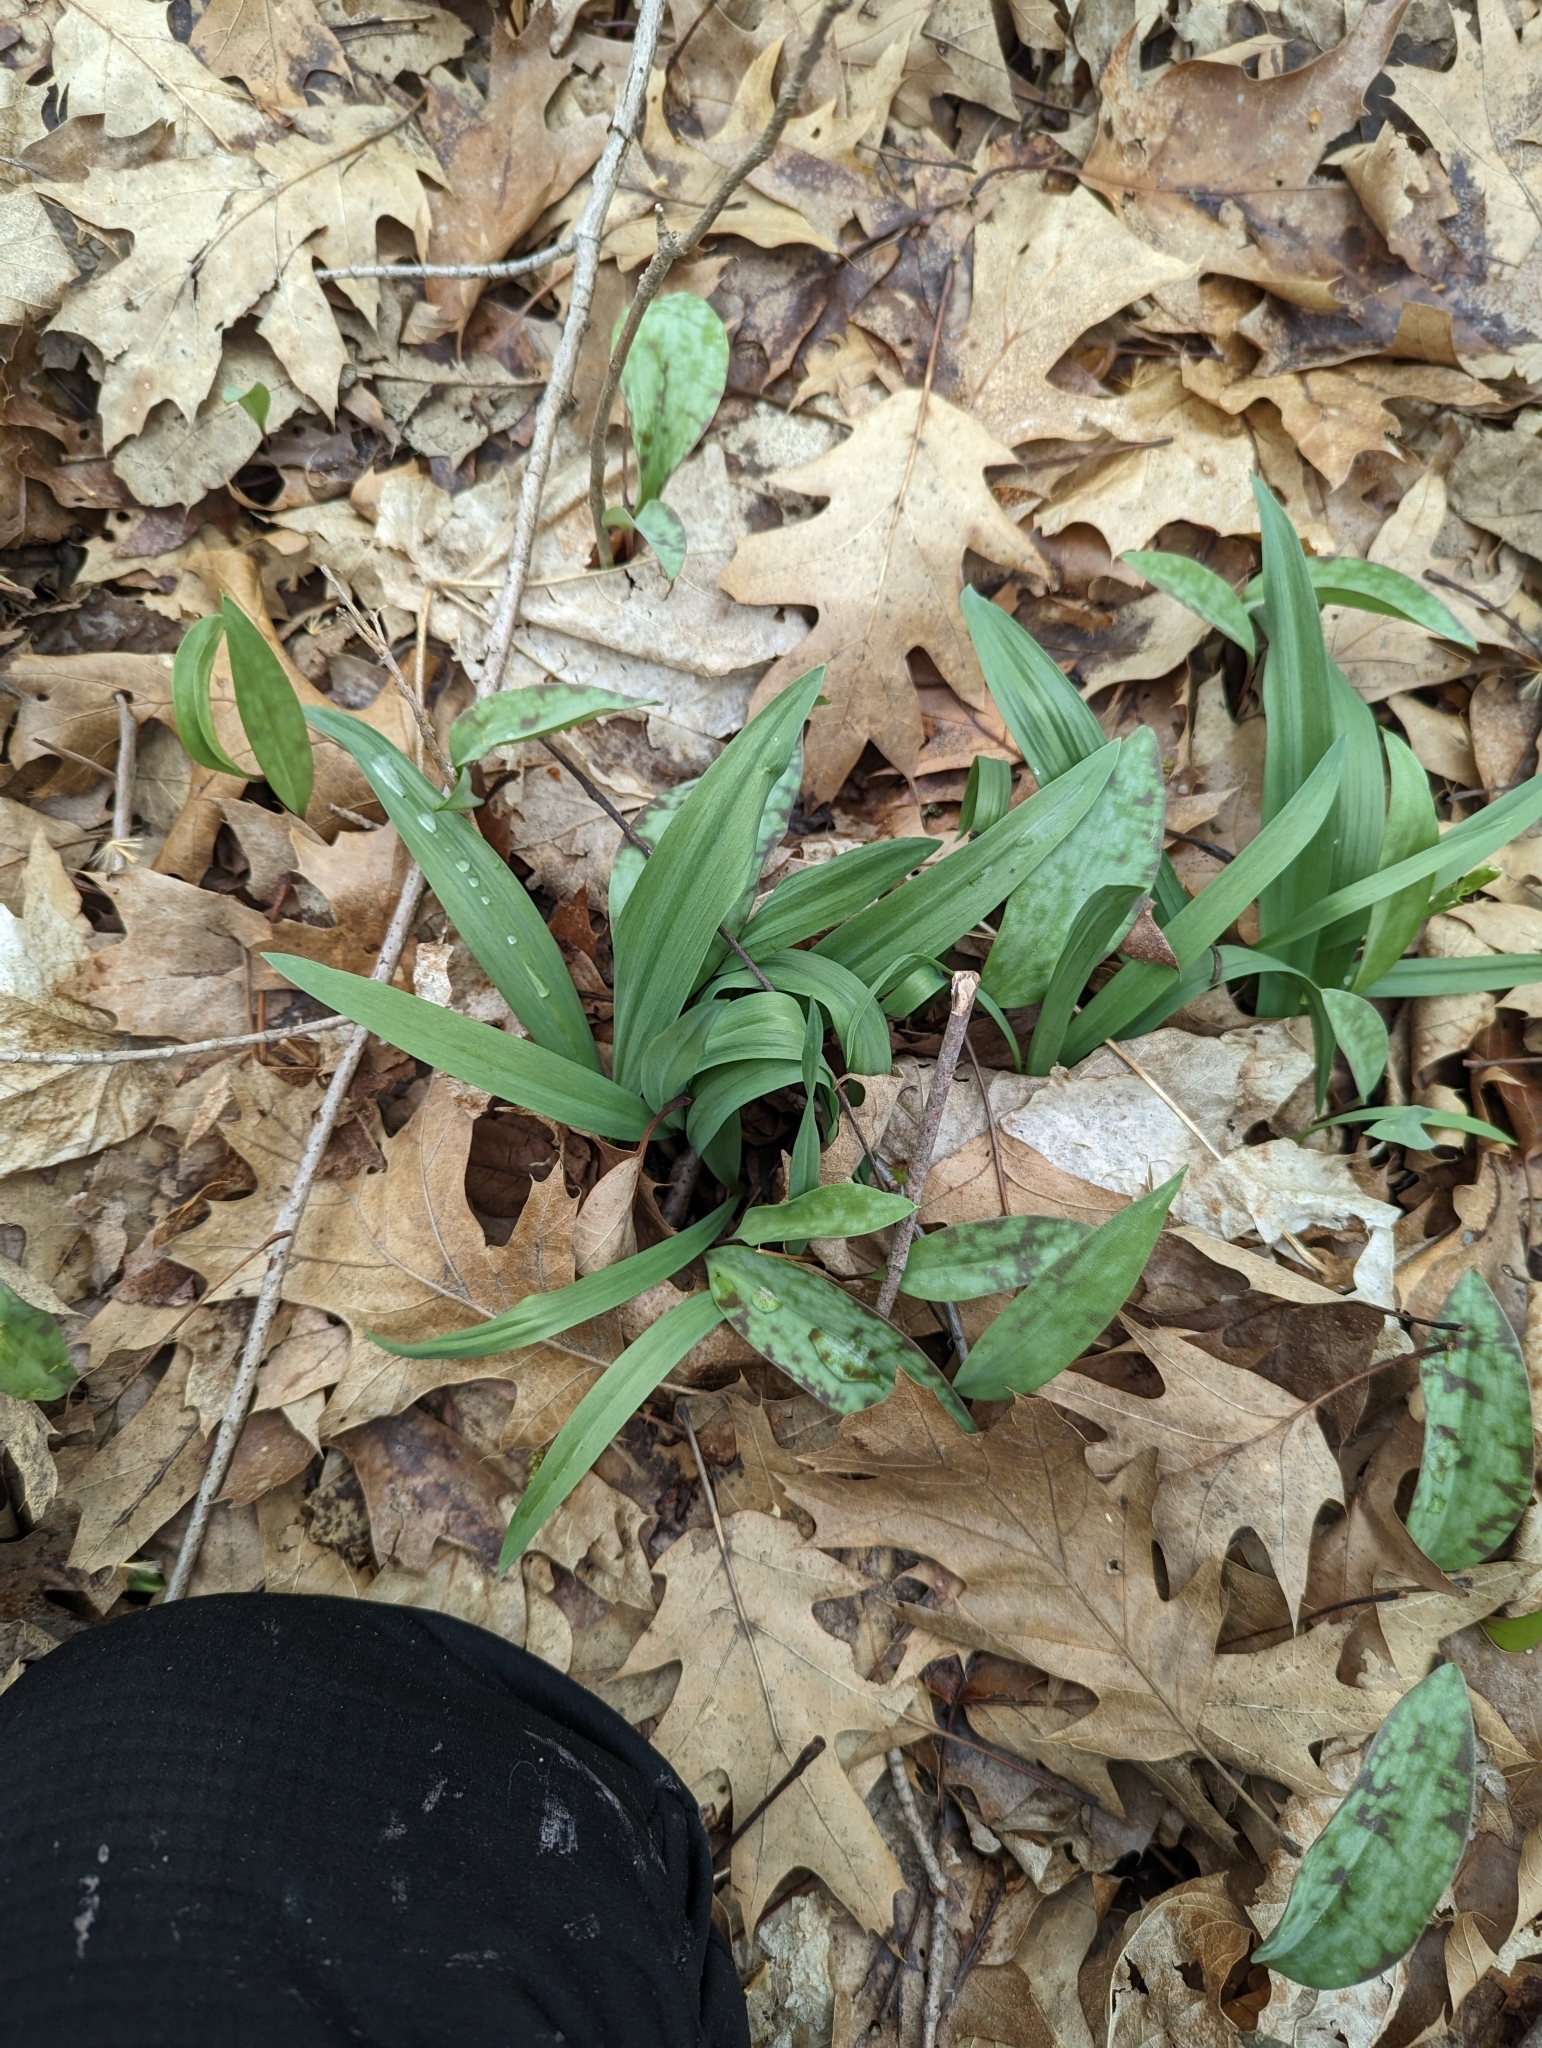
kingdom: Plantae
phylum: Tracheophyta
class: Liliopsida
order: Asparagales
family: Amaryllidaceae
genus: Allium
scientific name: Allium tricoccum
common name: Ramp
